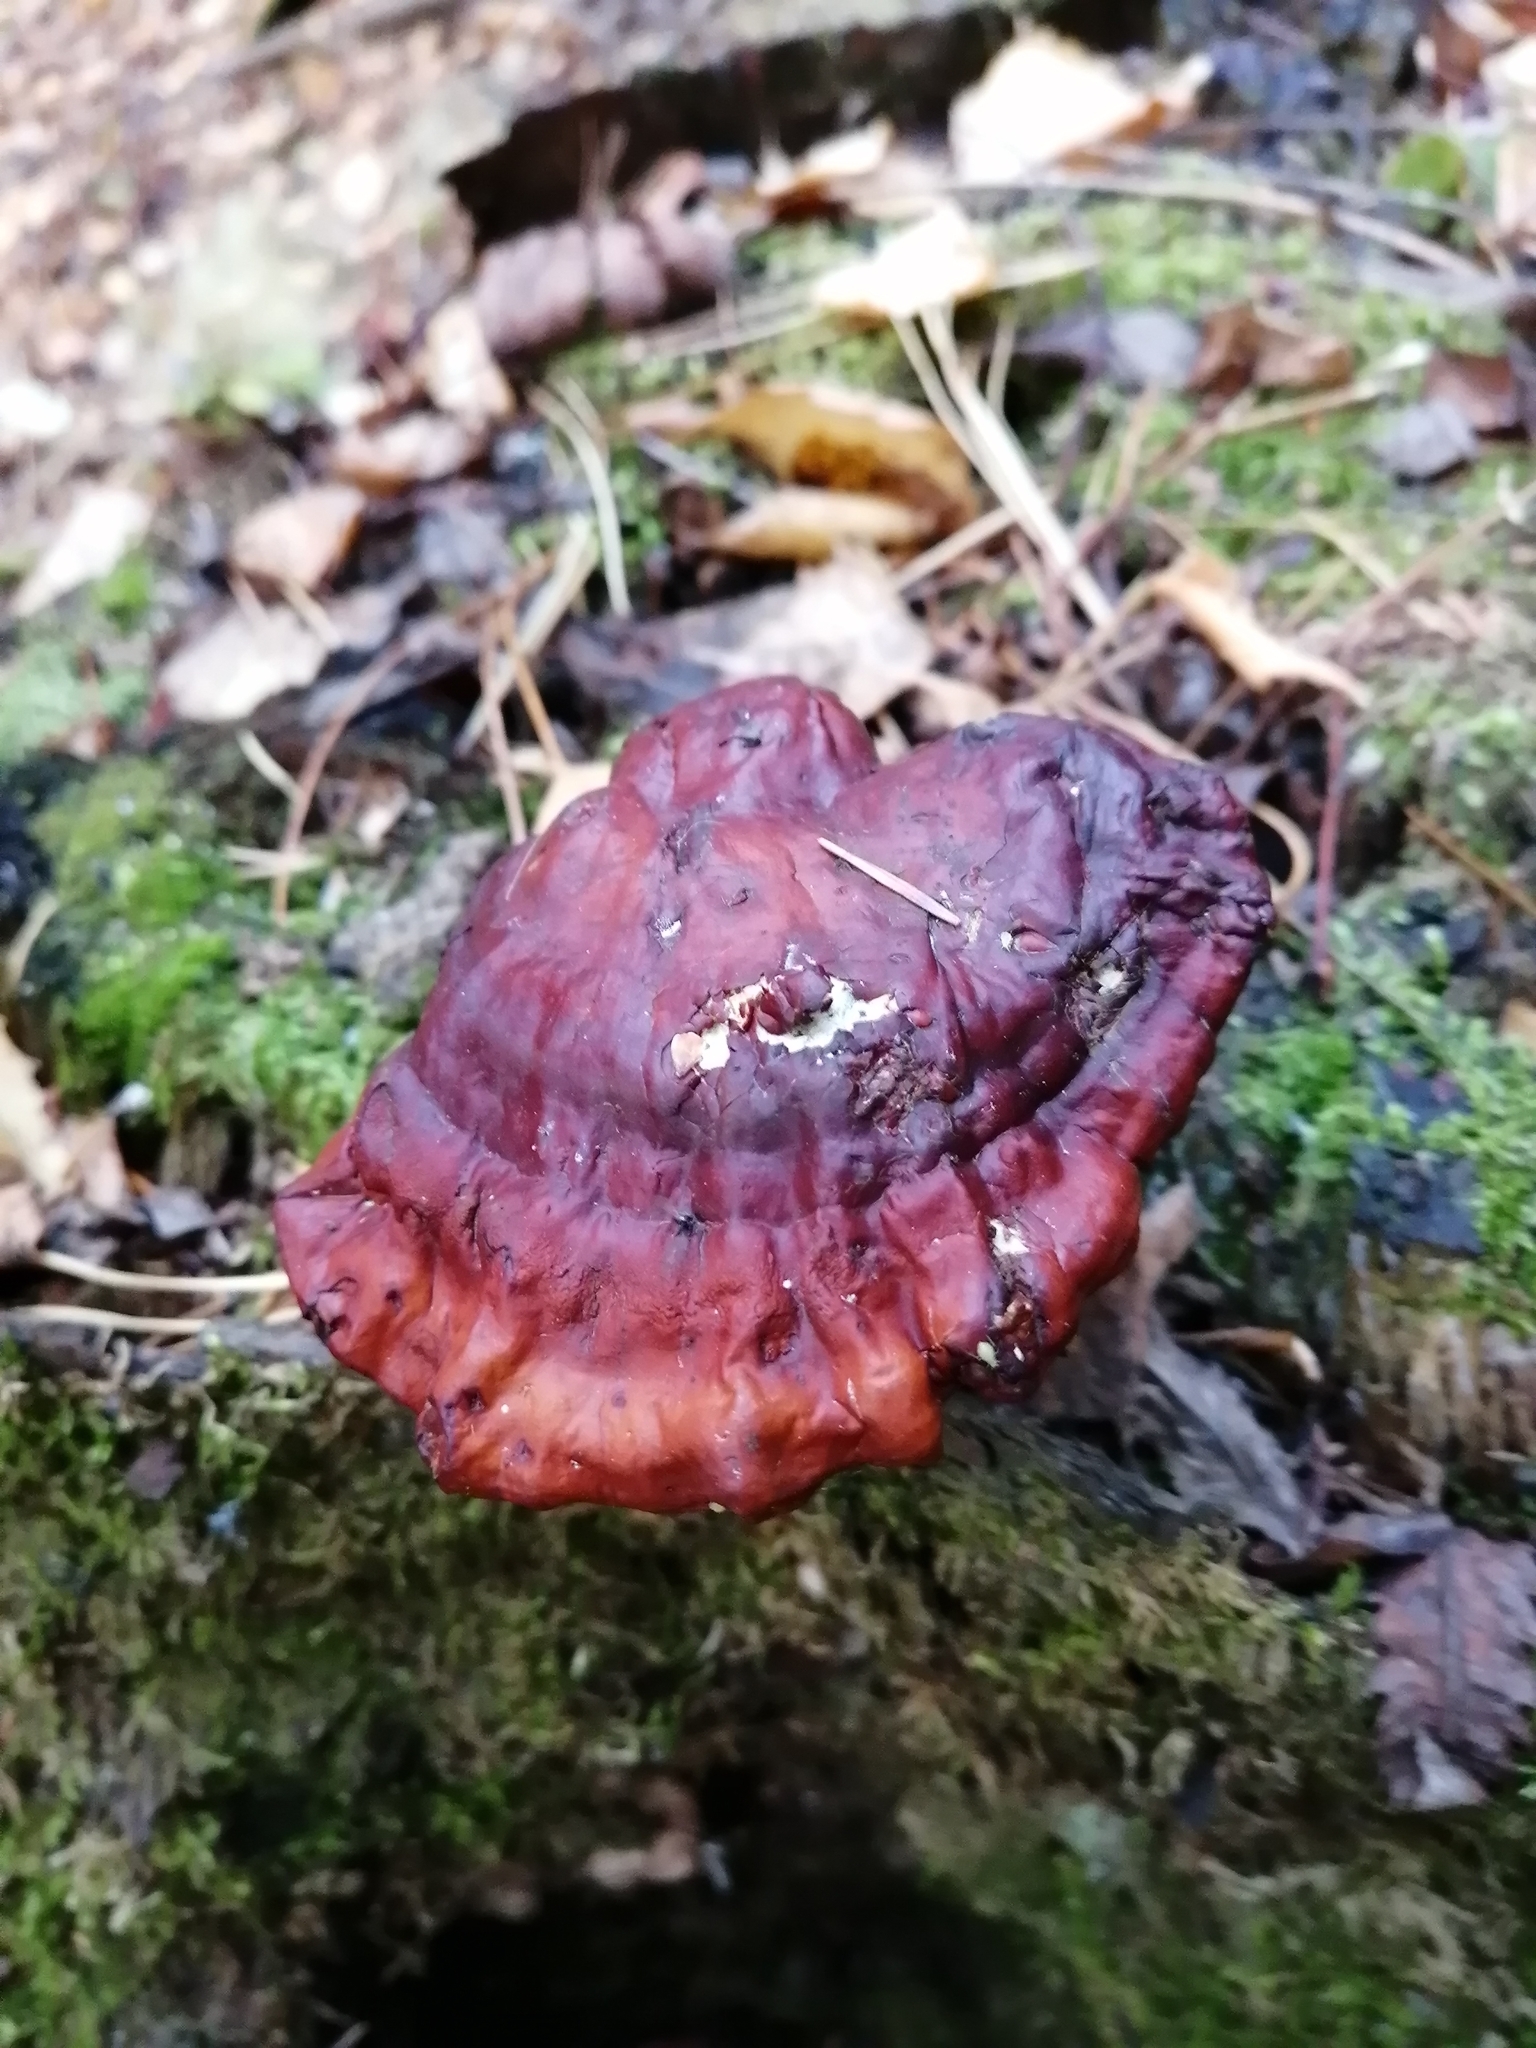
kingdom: Fungi
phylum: Basidiomycota
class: Agaricomycetes
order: Polyporales
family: Polyporaceae
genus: Ganoderma
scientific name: Ganoderma lucidum
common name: Lacquered bracket
